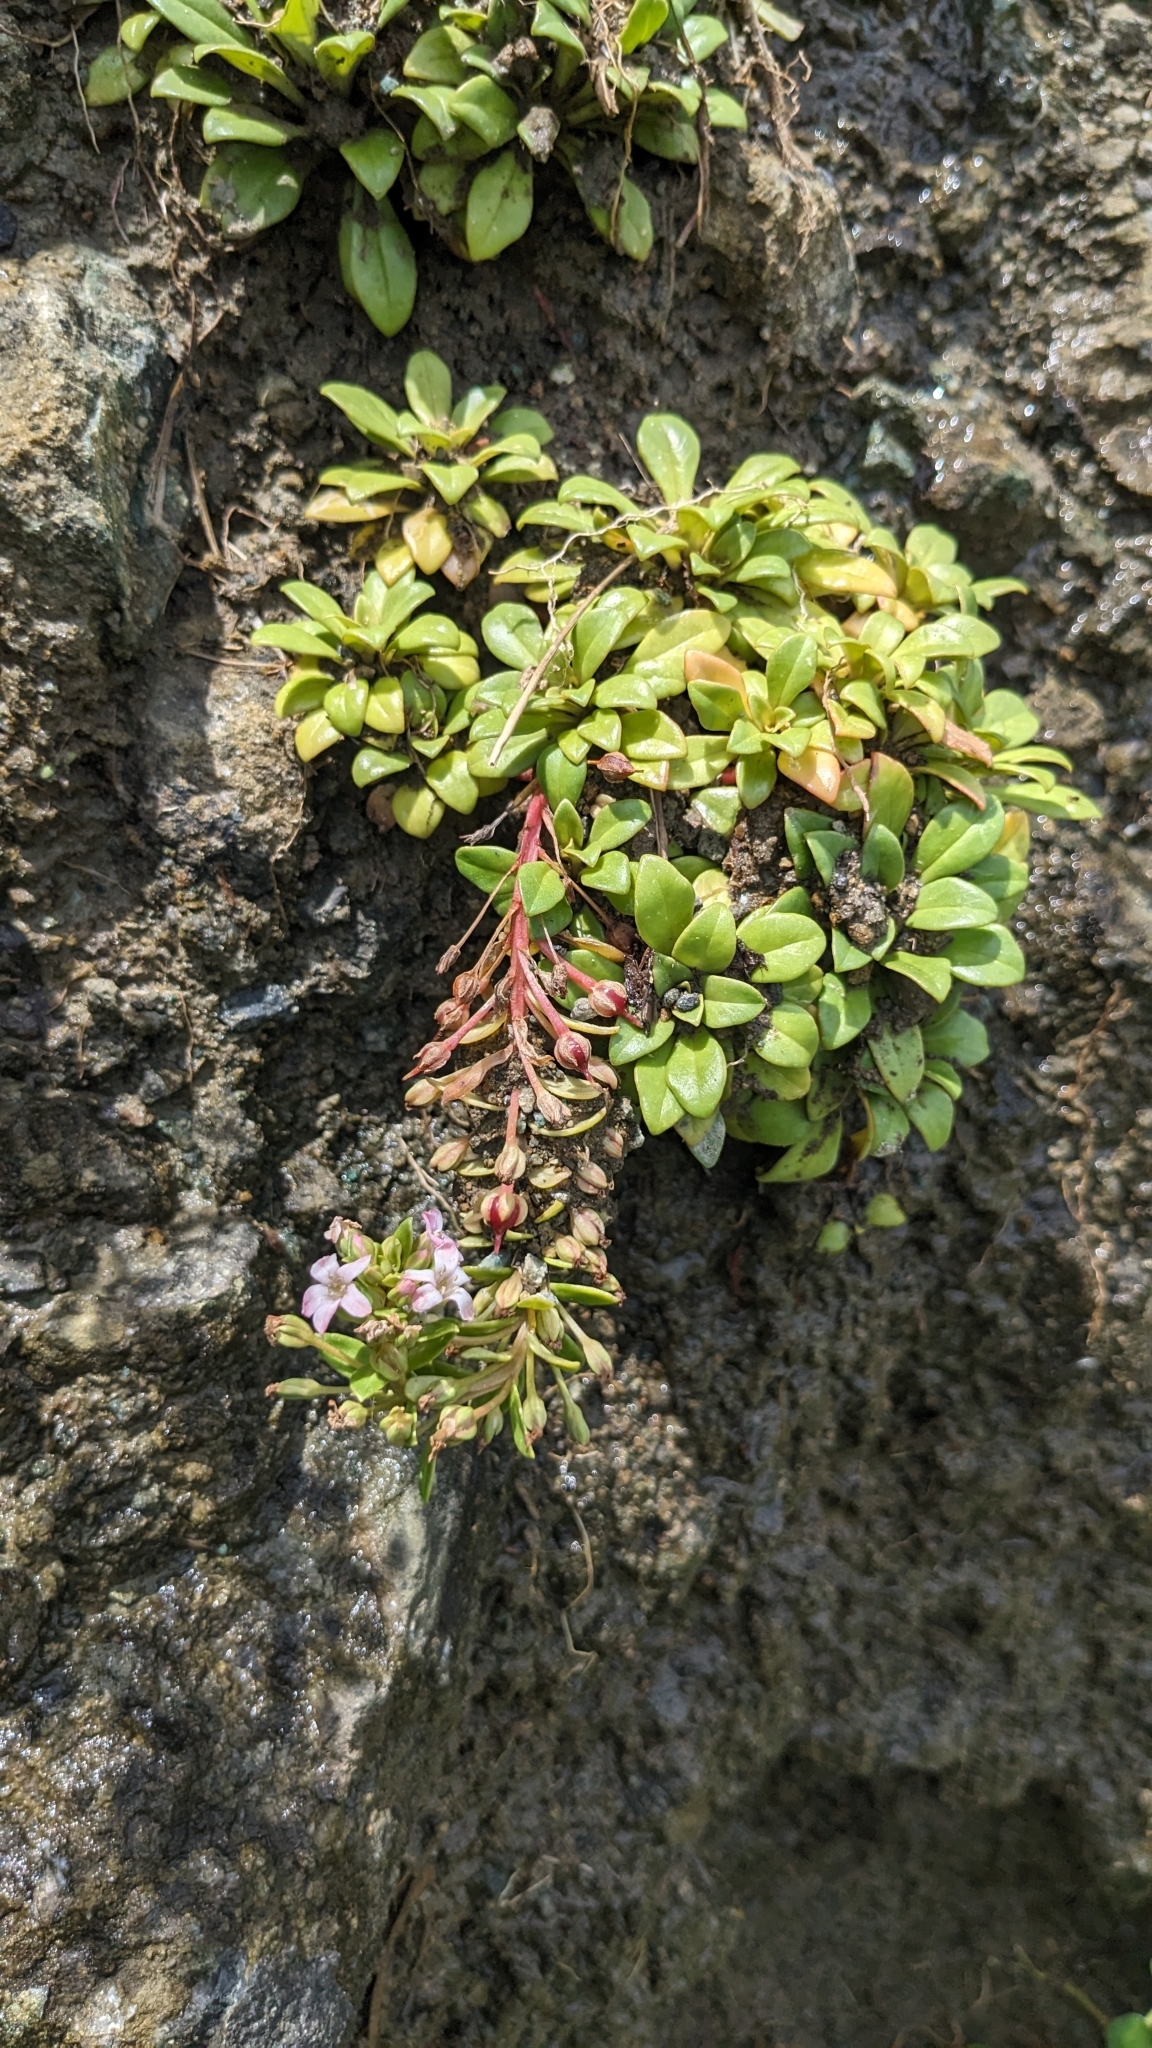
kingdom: Plantae
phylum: Tracheophyta
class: Magnoliopsida
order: Ericales
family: Primulaceae
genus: Lysimachia
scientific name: Lysimachia mauritiana
